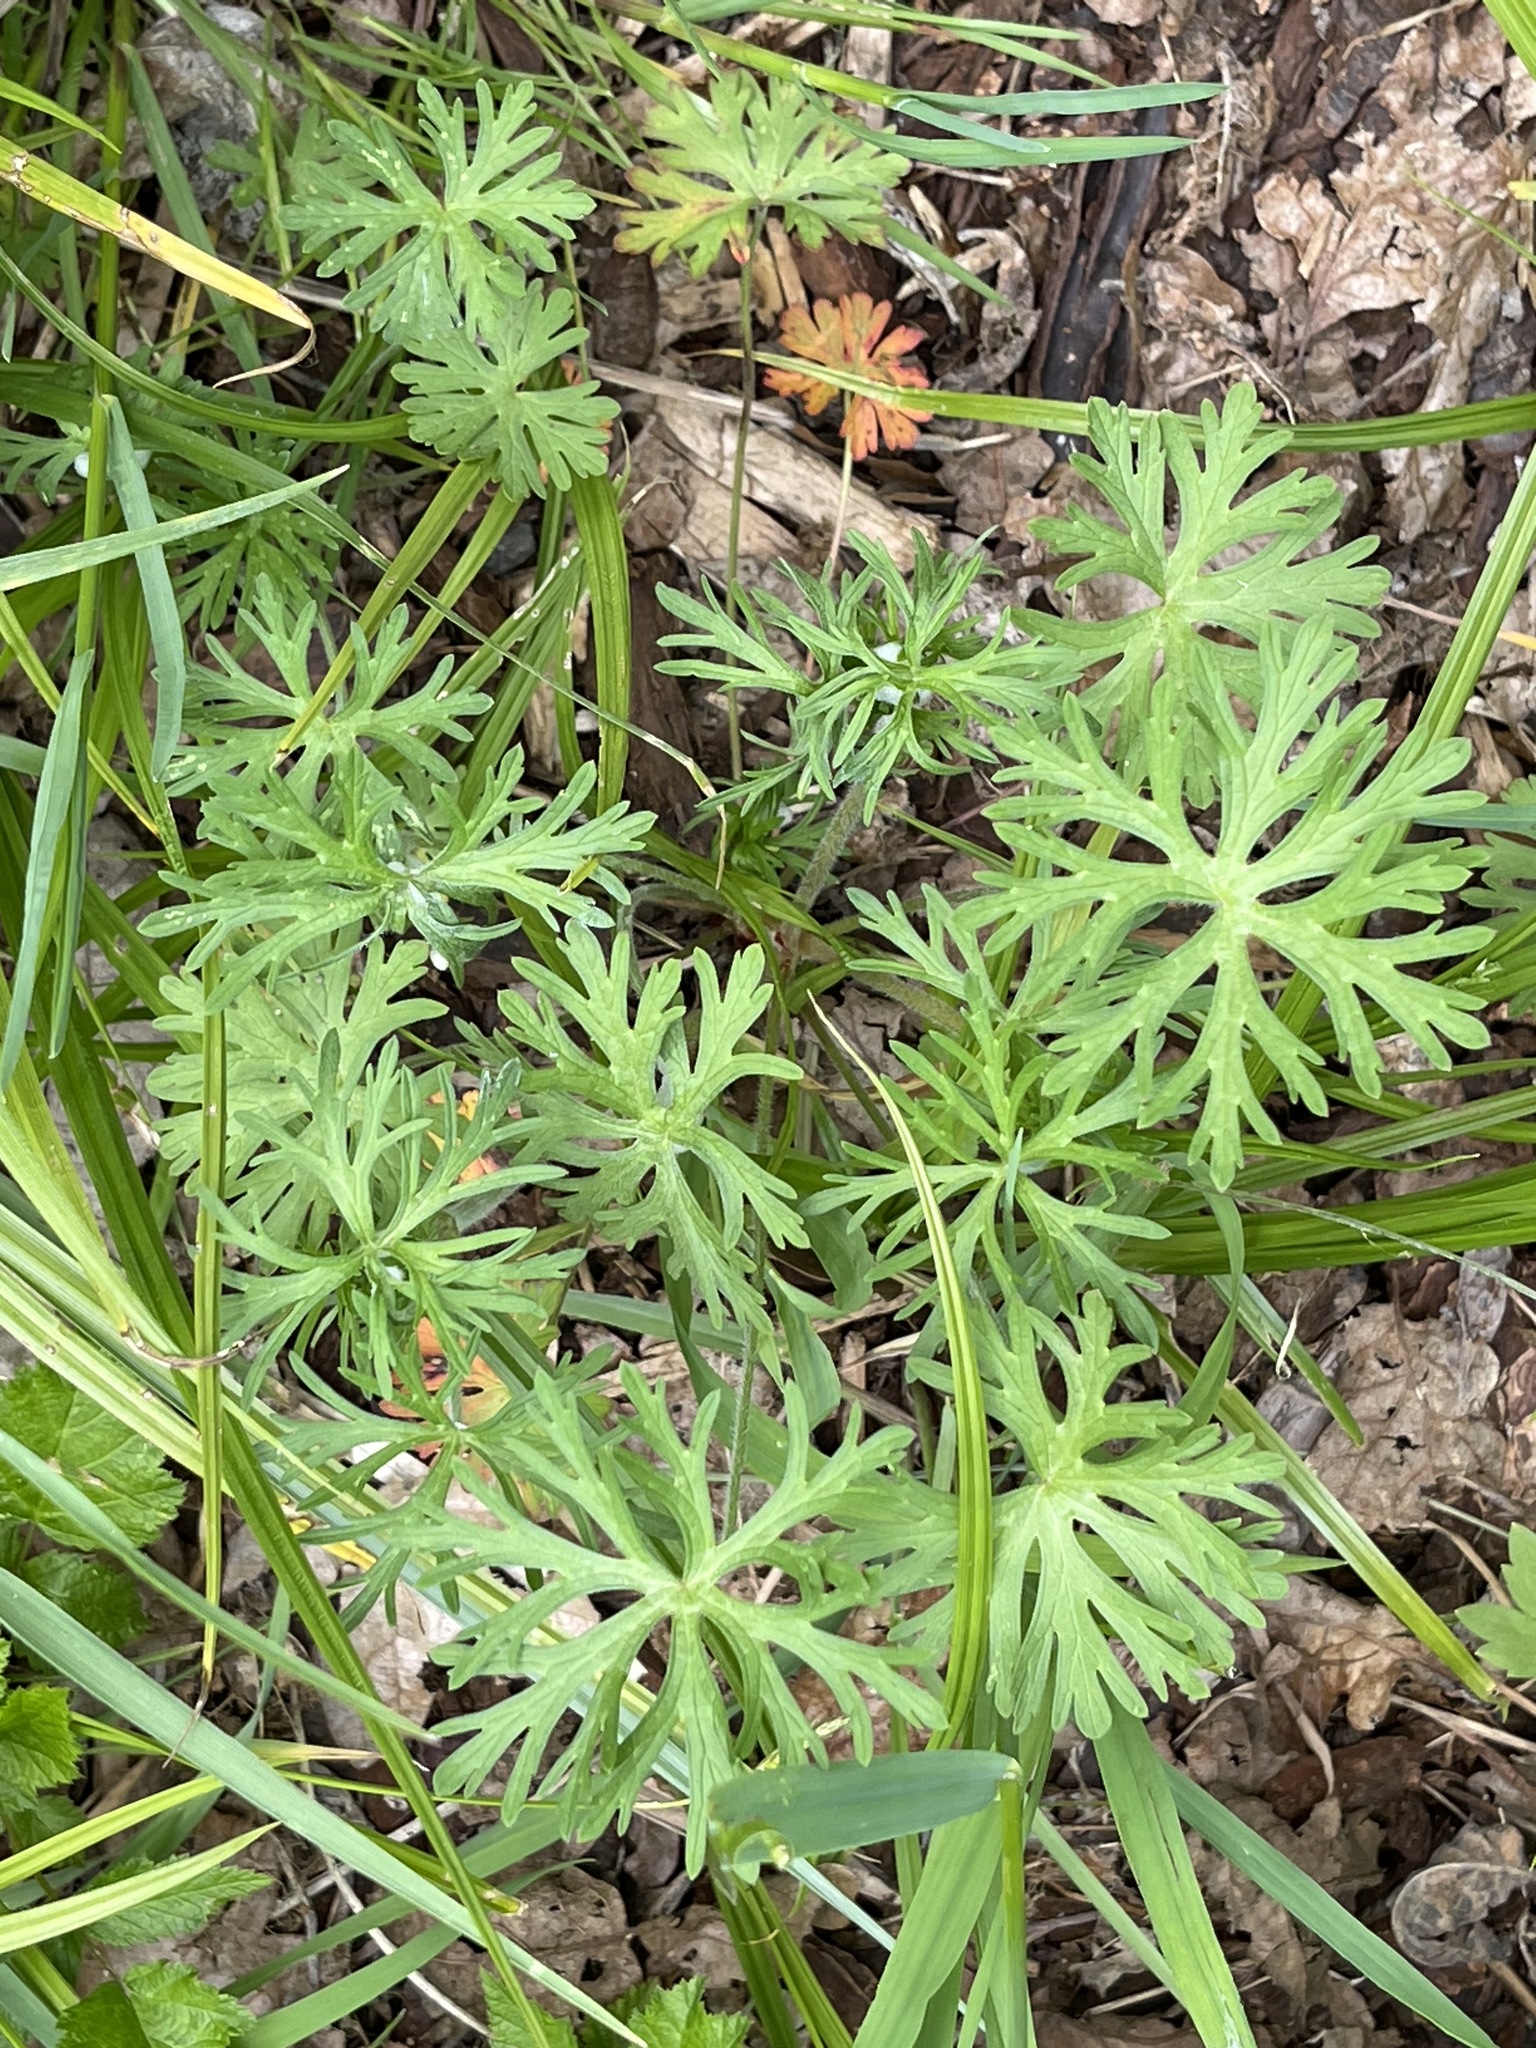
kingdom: Plantae
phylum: Tracheophyta
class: Magnoliopsida
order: Geraniales
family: Geraniaceae
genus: Geranium
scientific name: Geranium dissectum
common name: Cut-leaved crane's-bill
